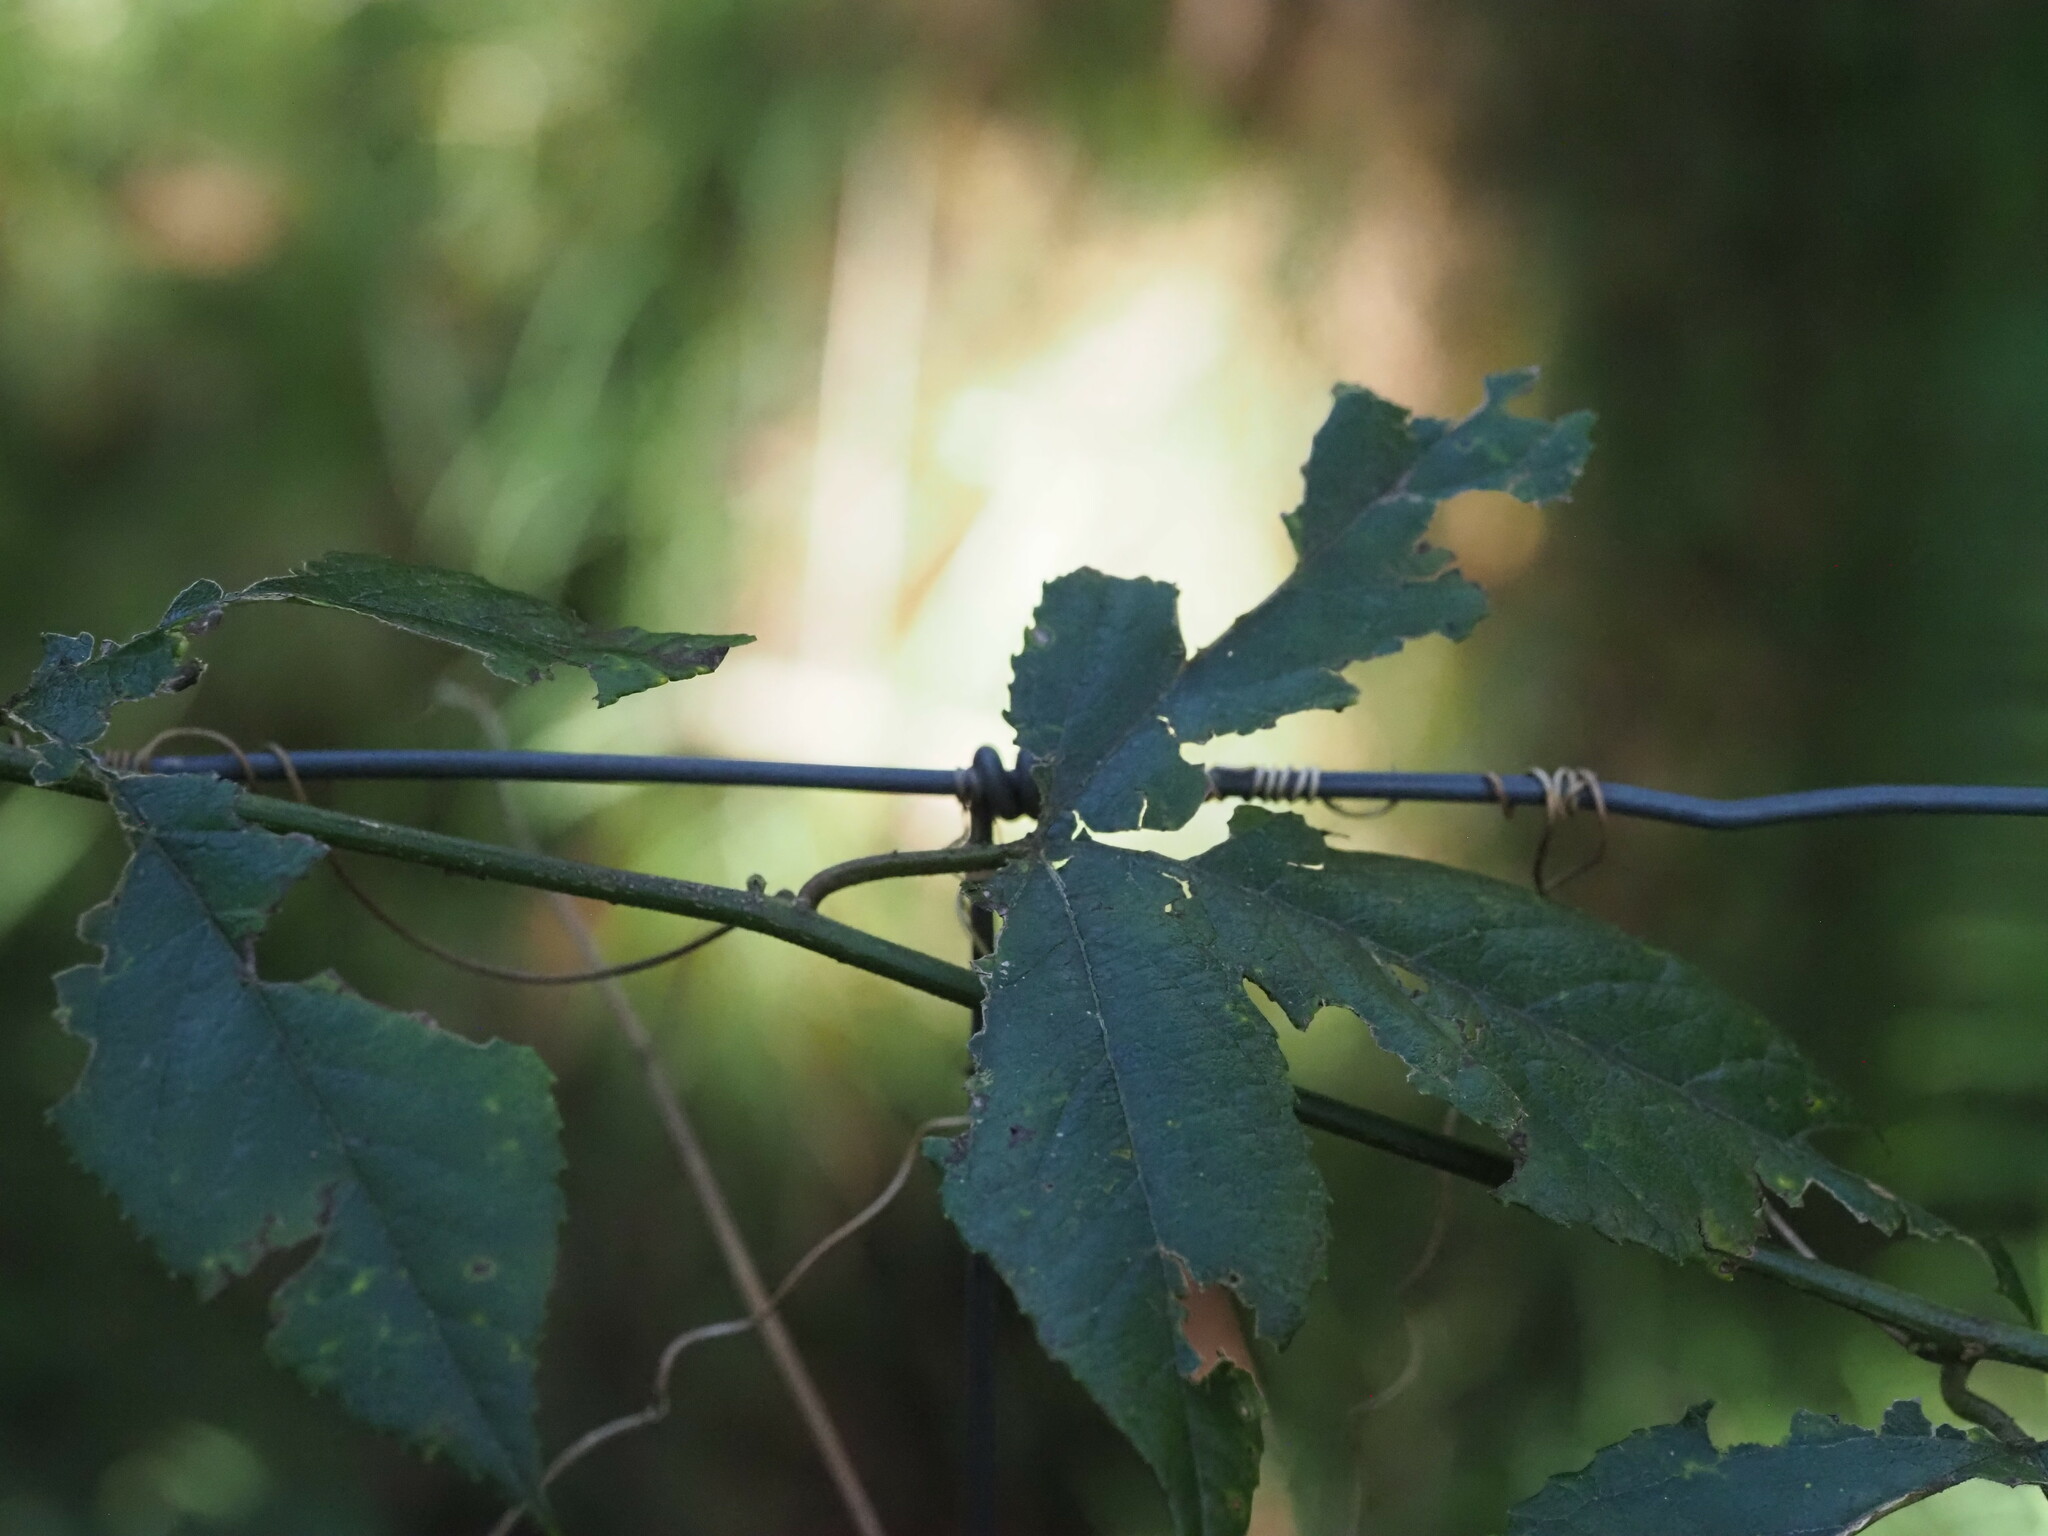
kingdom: Plantae
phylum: Tracheophyta
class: Magnoliopsida
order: Malpighiales
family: Passifloraceae
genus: Passiflora
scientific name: Passiflora tarminiana
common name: Banana poka
